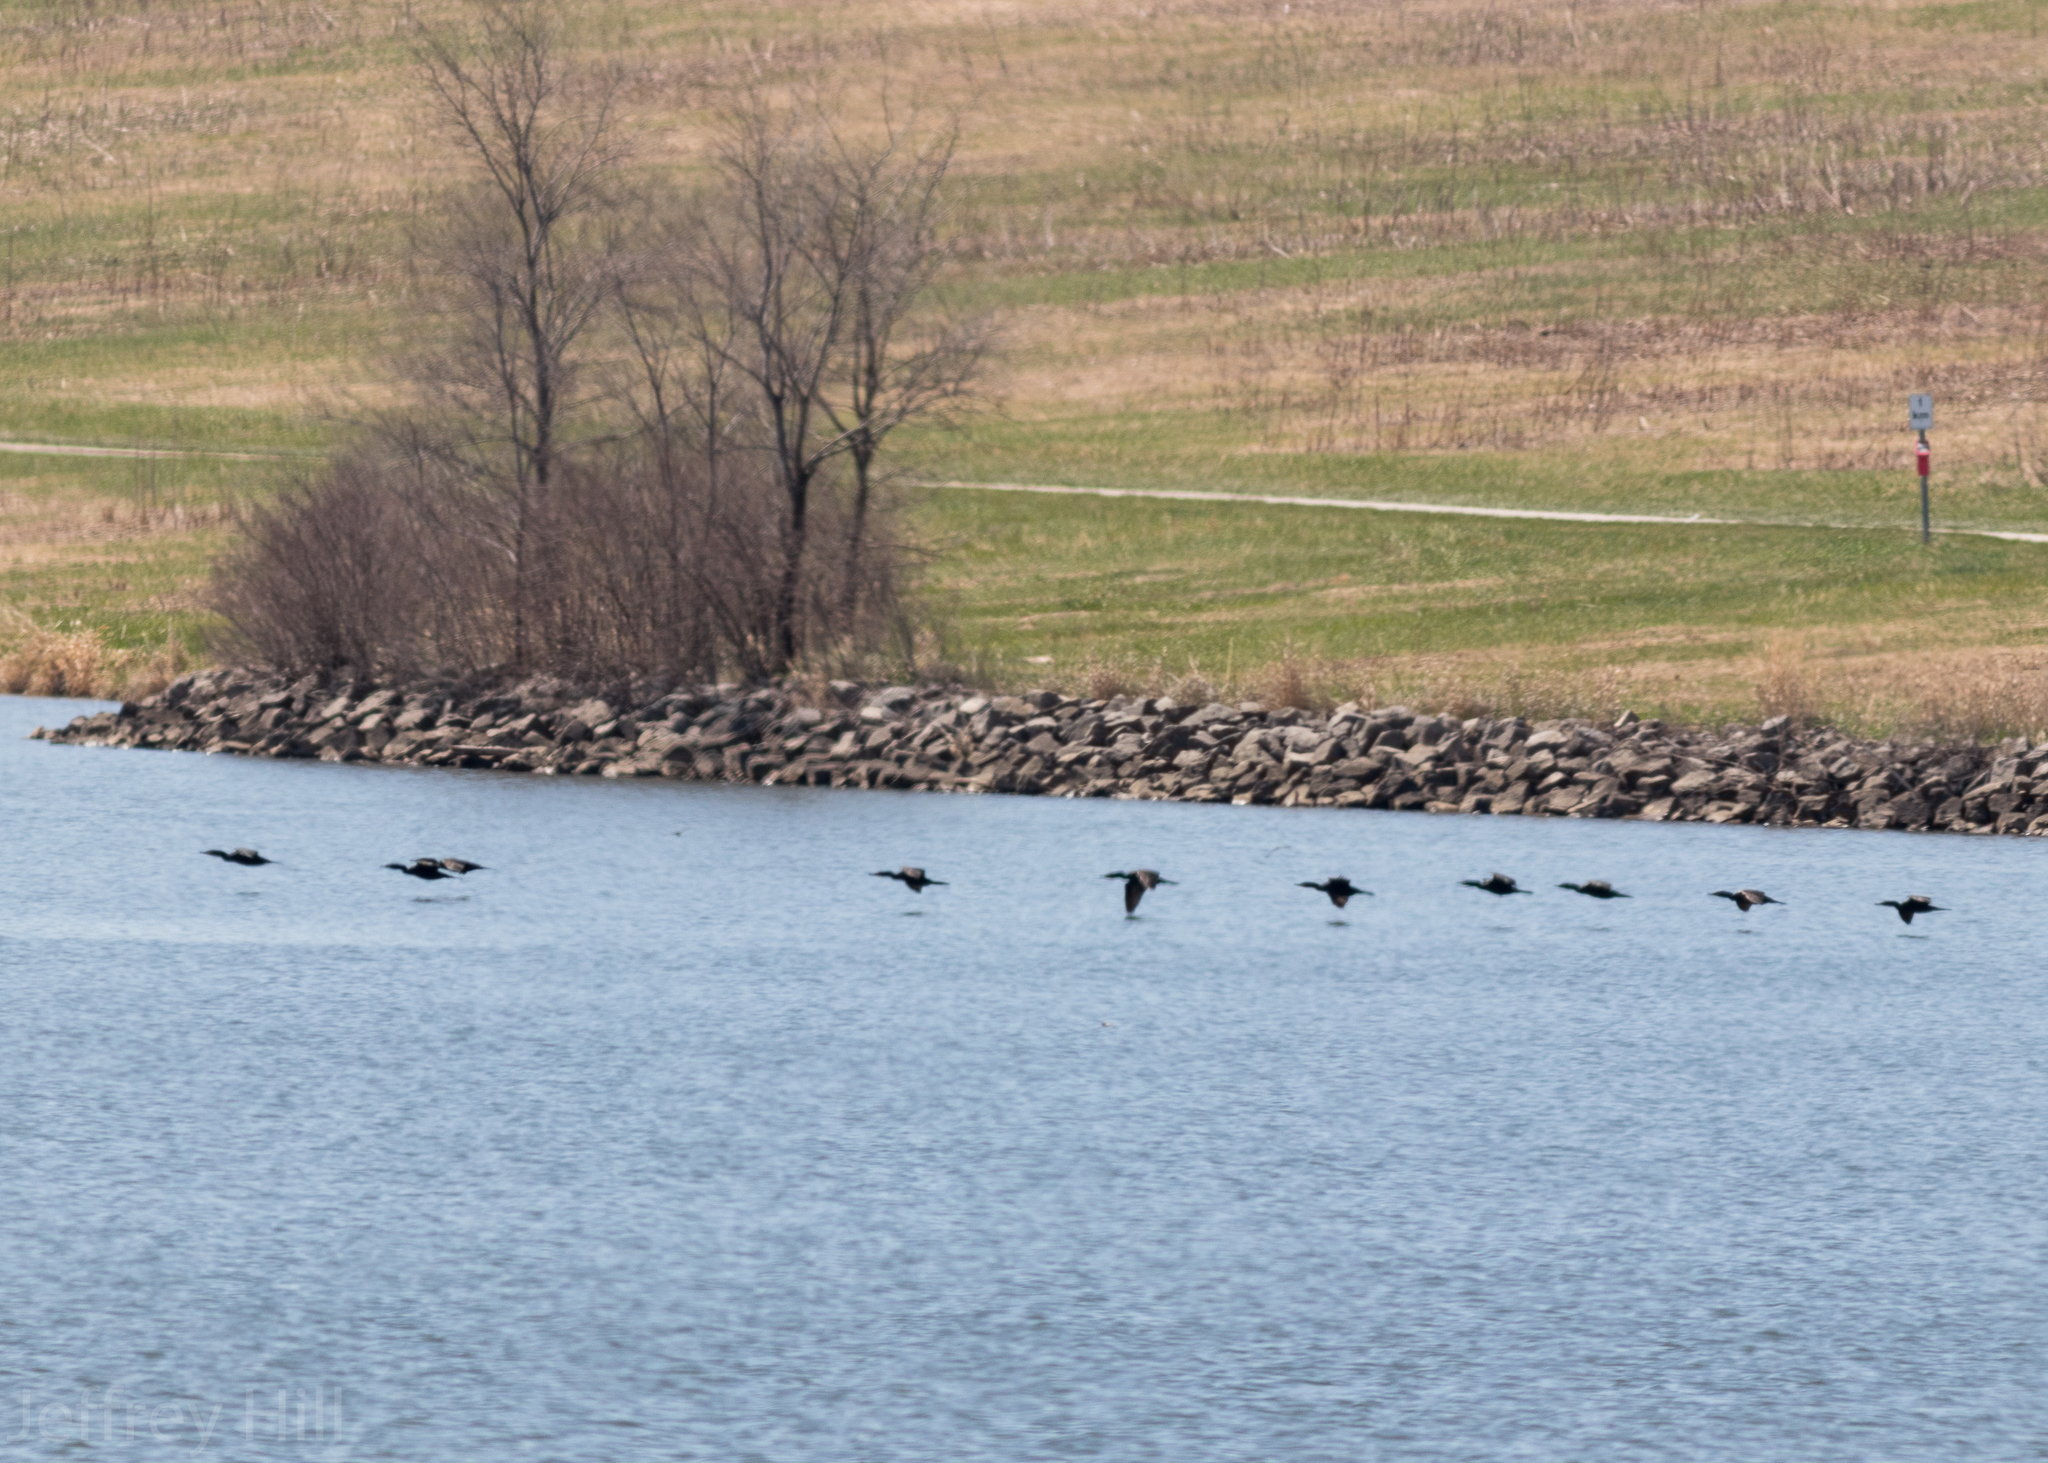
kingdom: Animalia
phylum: Chordata
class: Aves
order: Suliformes
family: Phalacrocoracidae
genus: Phalacrocorax
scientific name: Phalacrocorax auritus
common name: Double-crested cormorant
